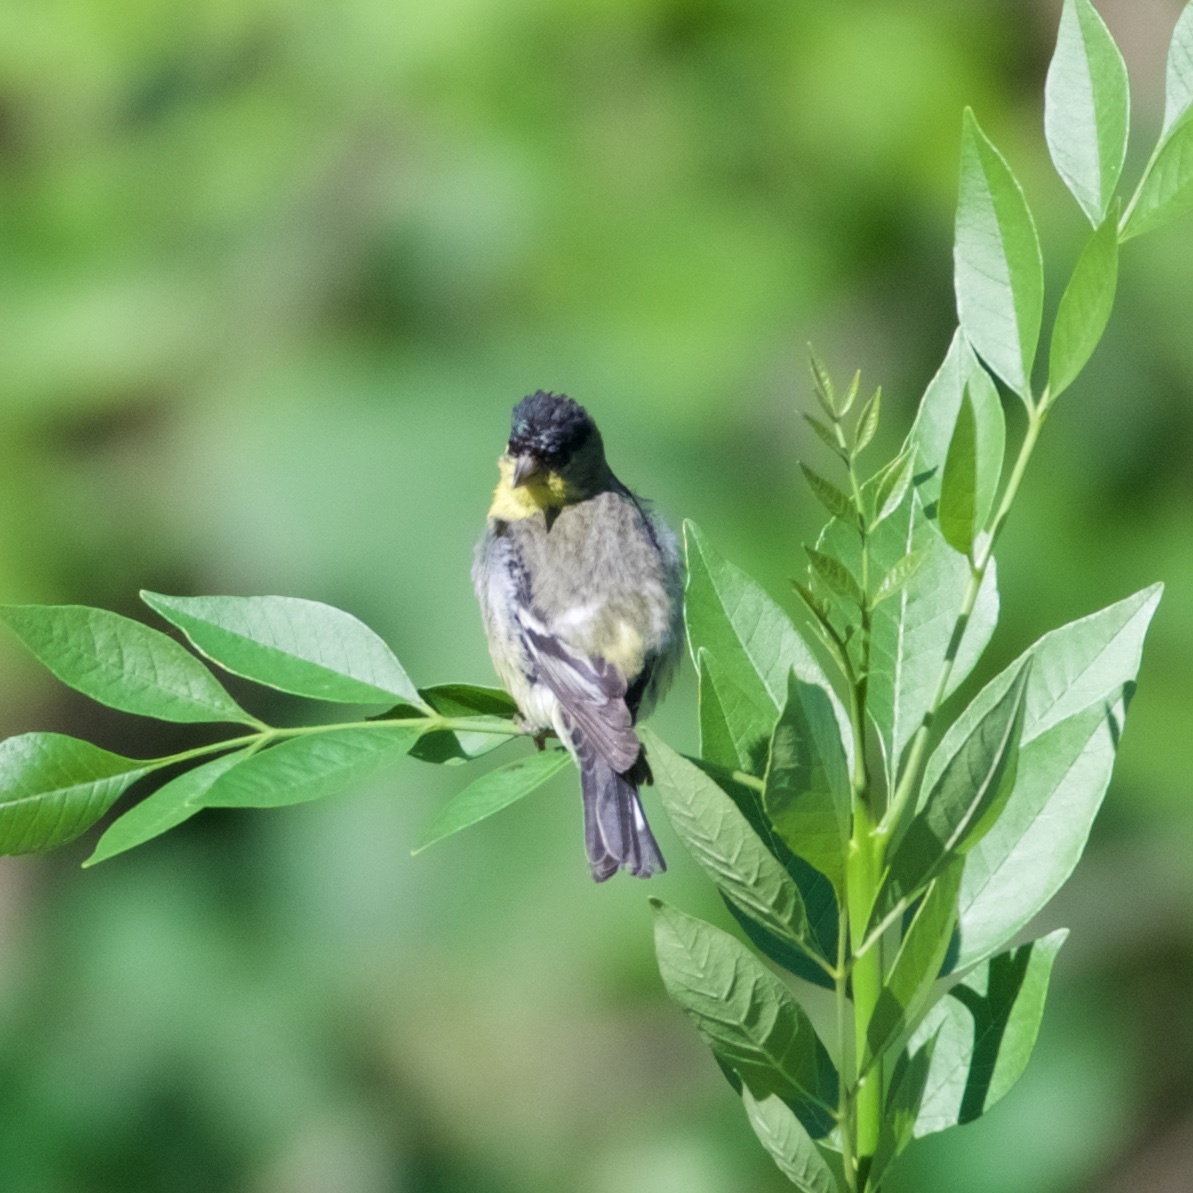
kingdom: Animalia
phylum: Chordata
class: Aves
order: Passeriformes
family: Fringillidae
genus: Spinus
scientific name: Spinus psaltria
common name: Lesser goldfinch
